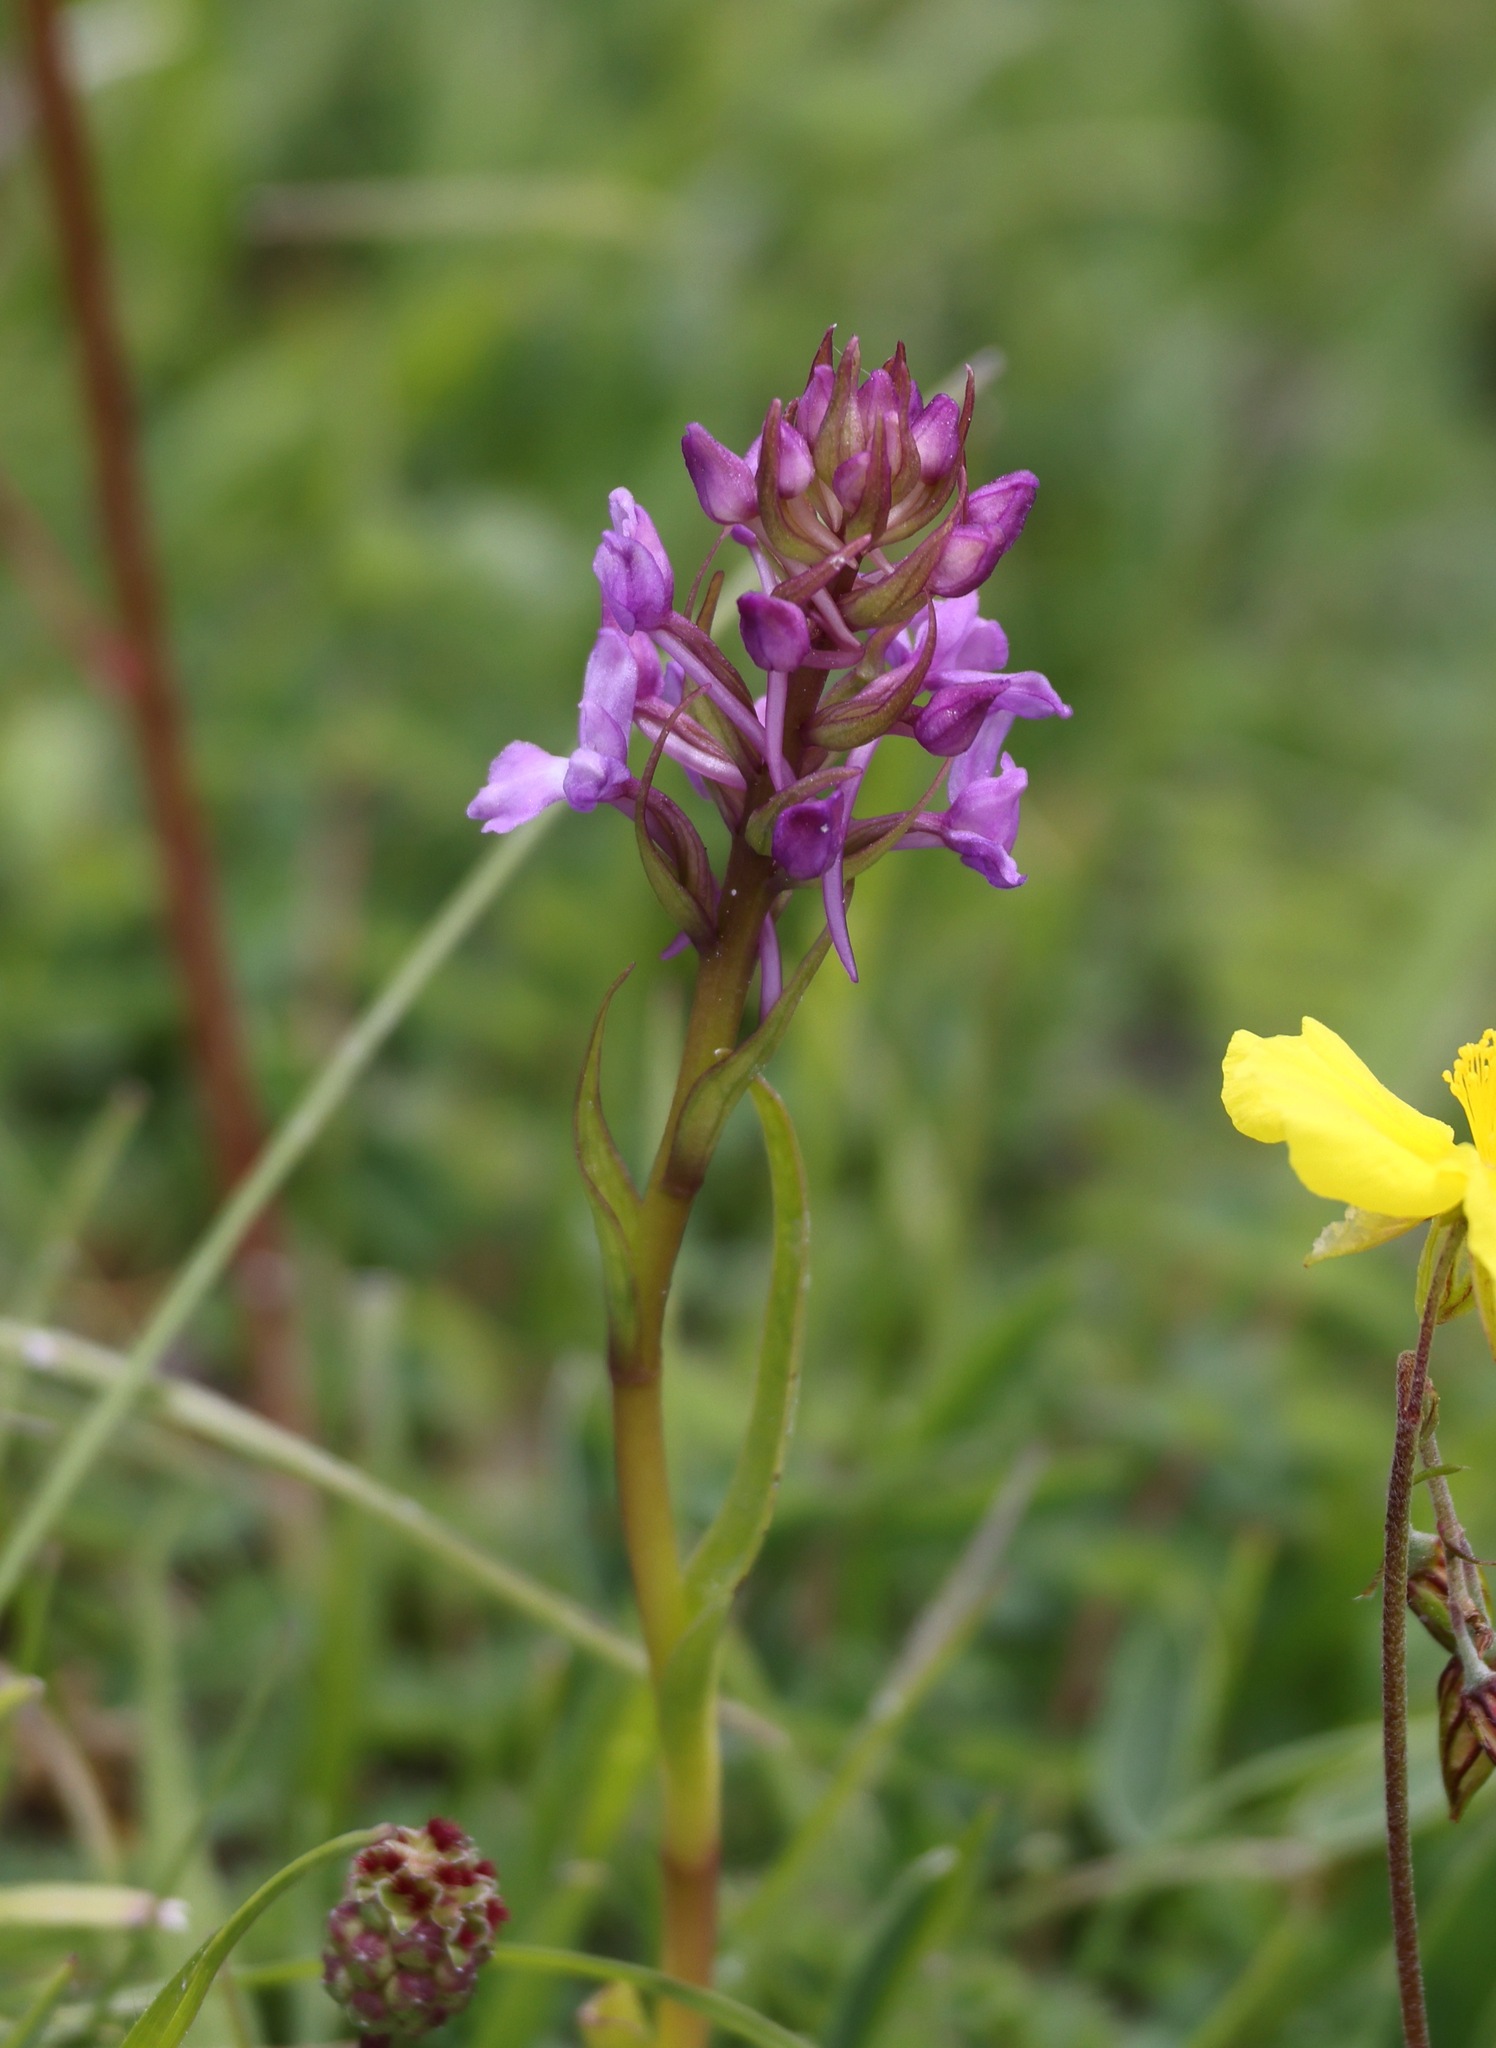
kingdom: Plantae
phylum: Tracheophyta
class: Liliopsida
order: Asparagales
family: Orchidaceae
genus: Gymnadenia
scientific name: Gymnadenia conopsea
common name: Fragrant orchid
